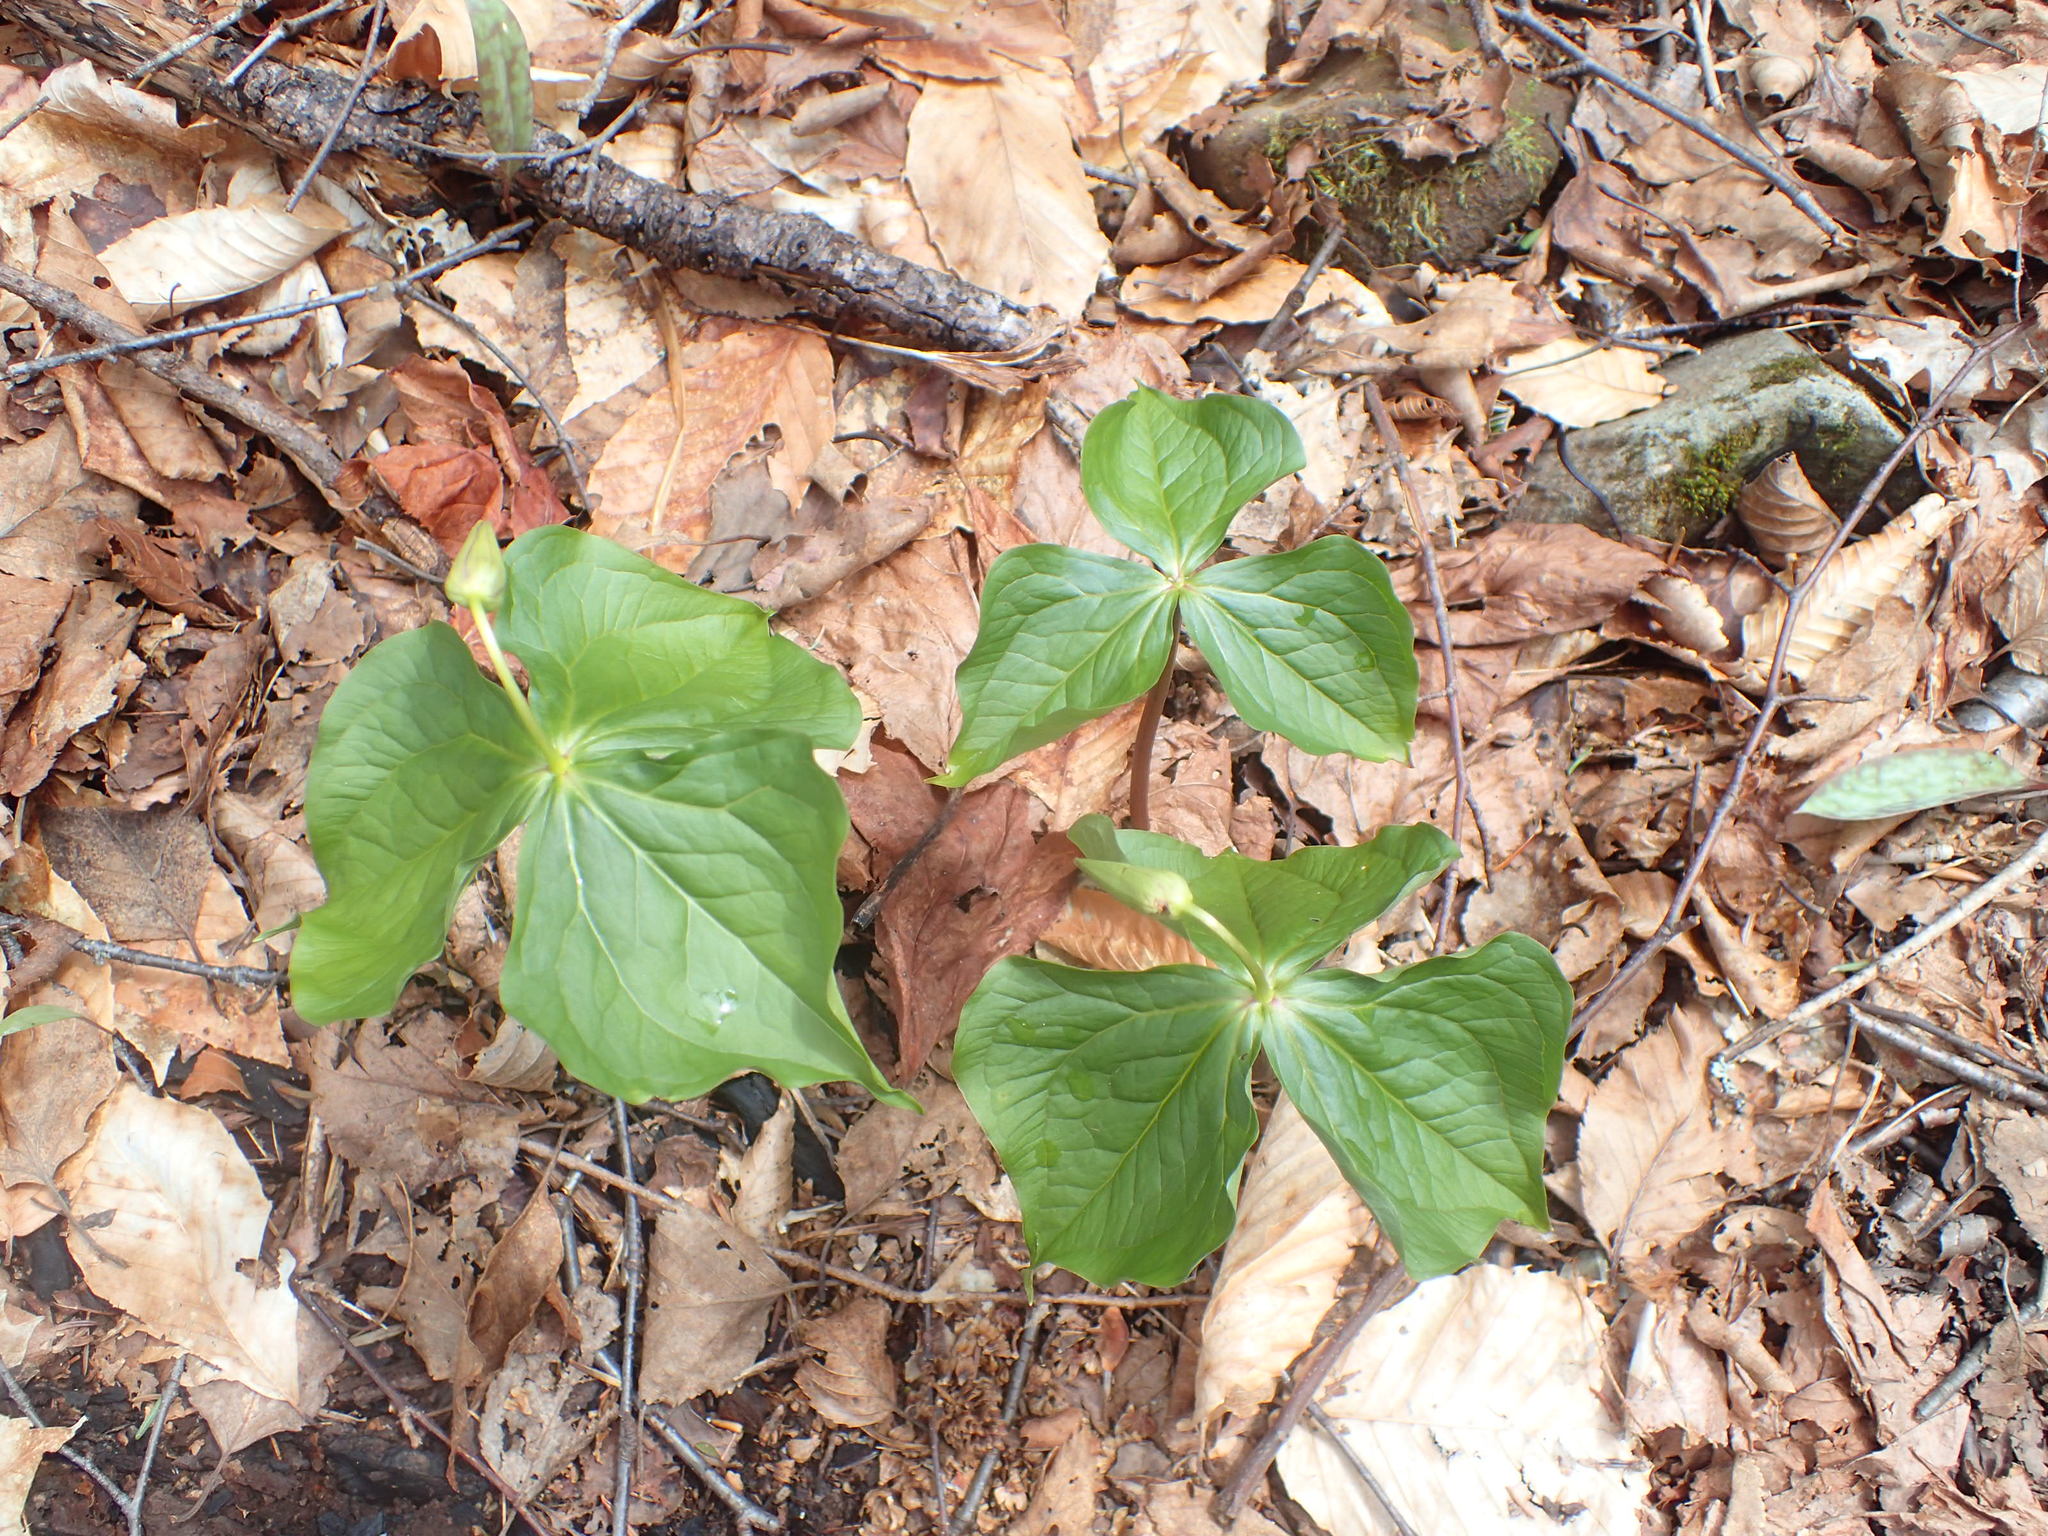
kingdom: Plantae
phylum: Tracheophyta
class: Liliopsida
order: Liliales
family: Melanthiaceae
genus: Trillium
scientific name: Trillium erectum
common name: Purple trillium
